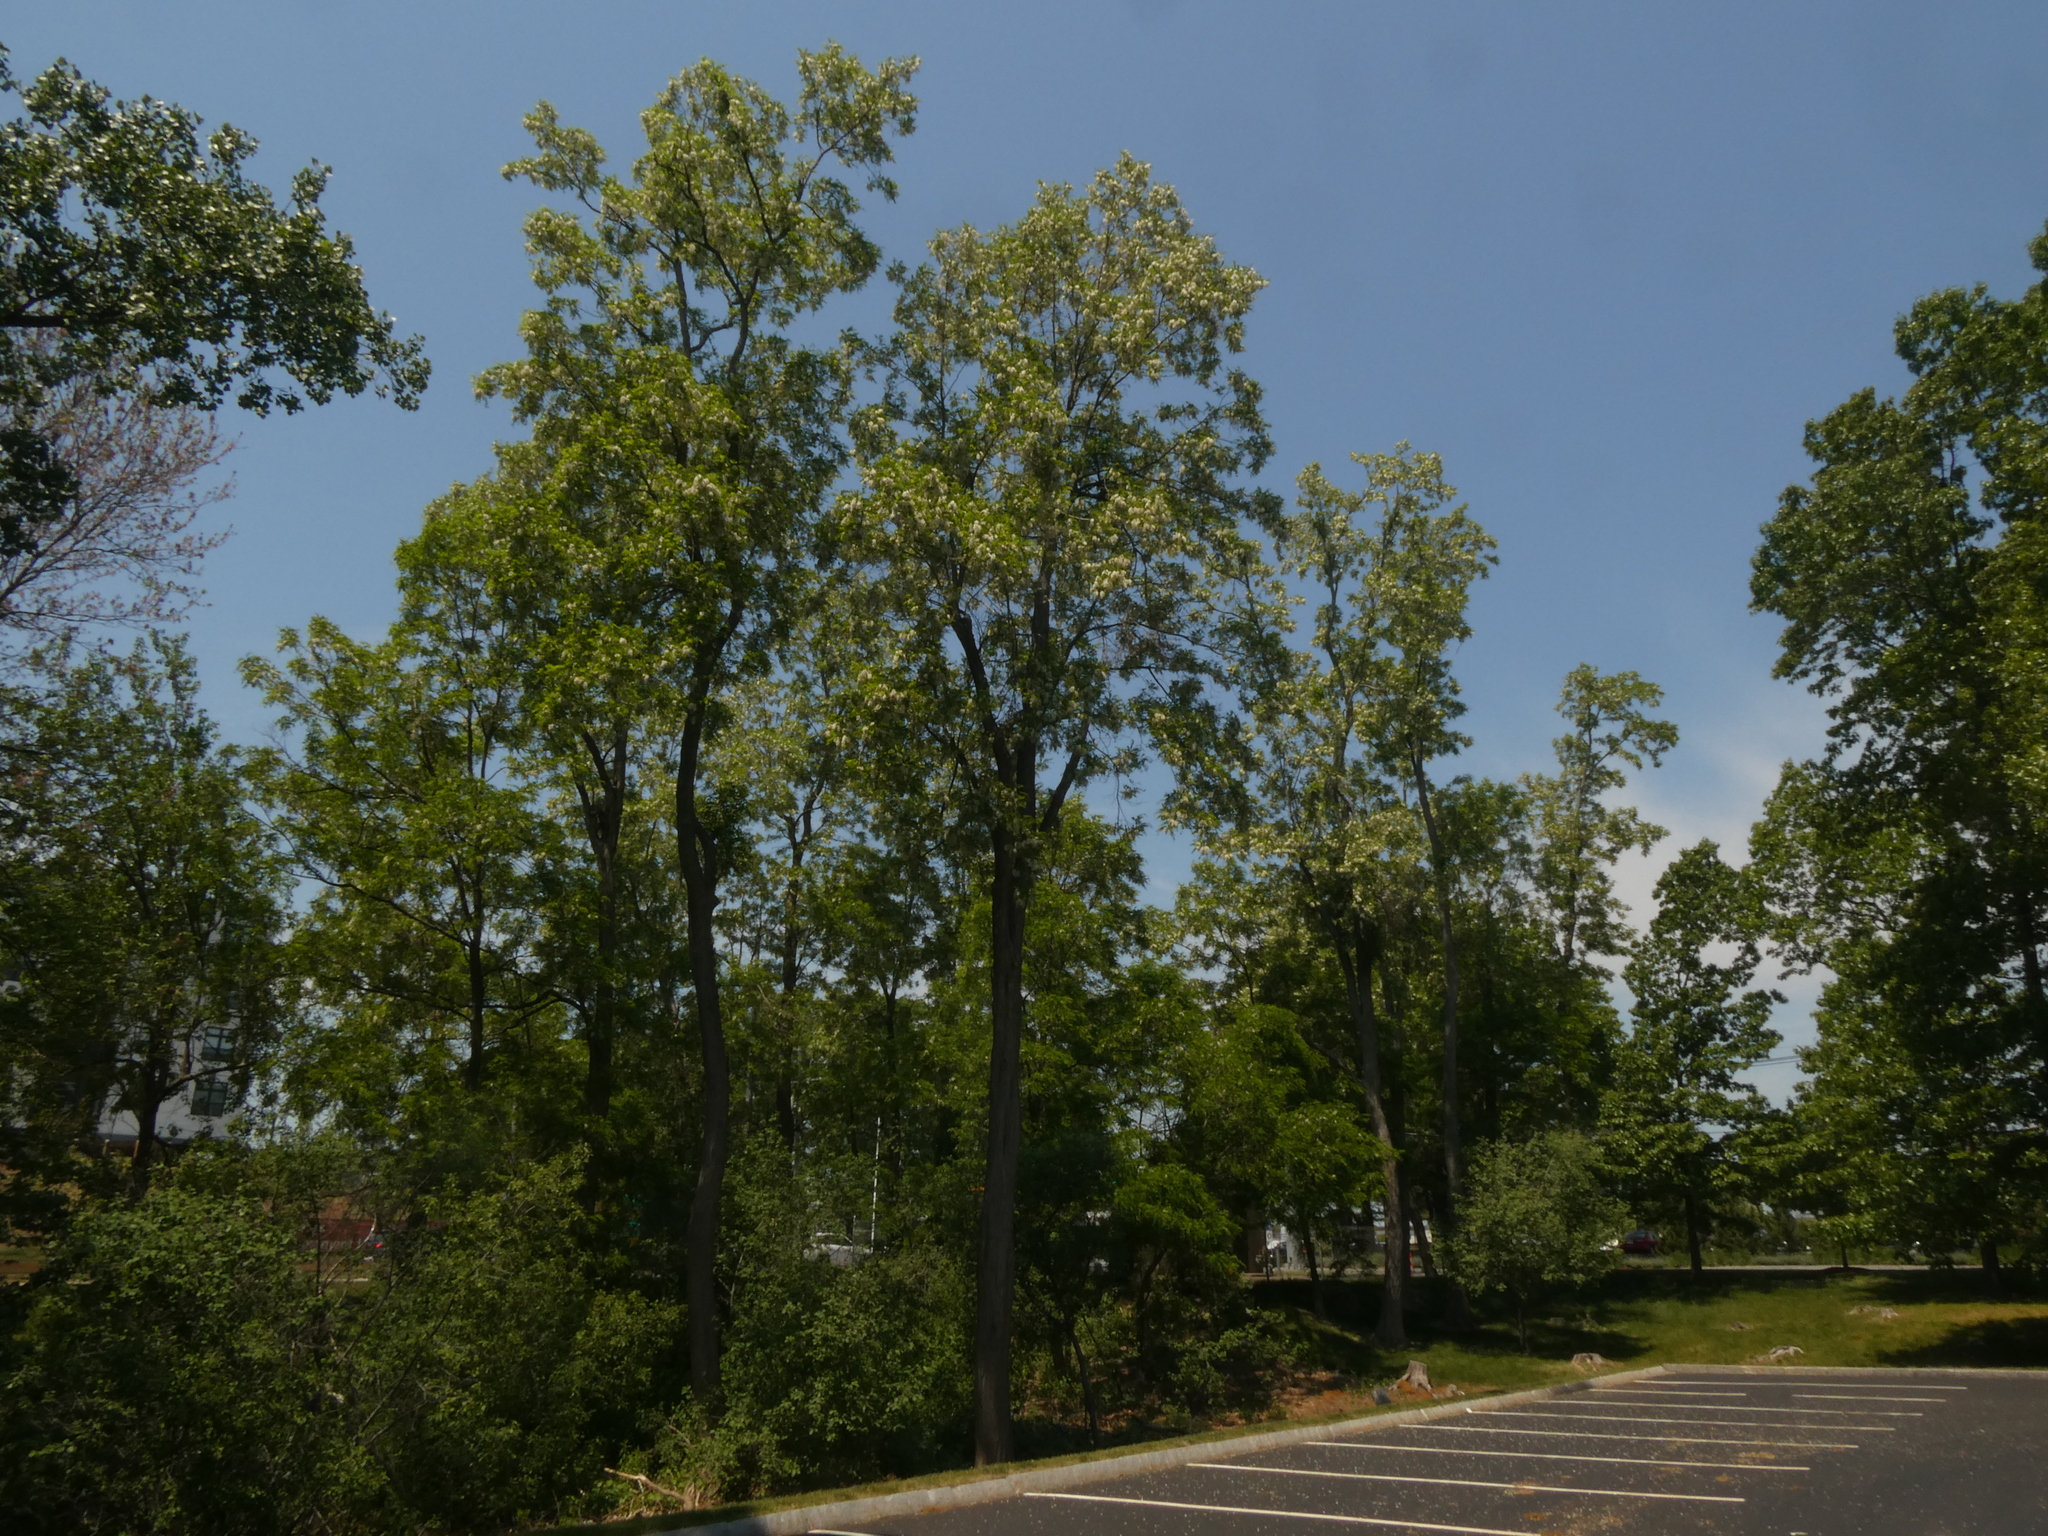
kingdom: Plantae
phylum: Tracheophyta
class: Magnoliopsida
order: Fabales
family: Fabaceae
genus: Robinia
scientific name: Robinia pseudoacacia
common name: Black locust
